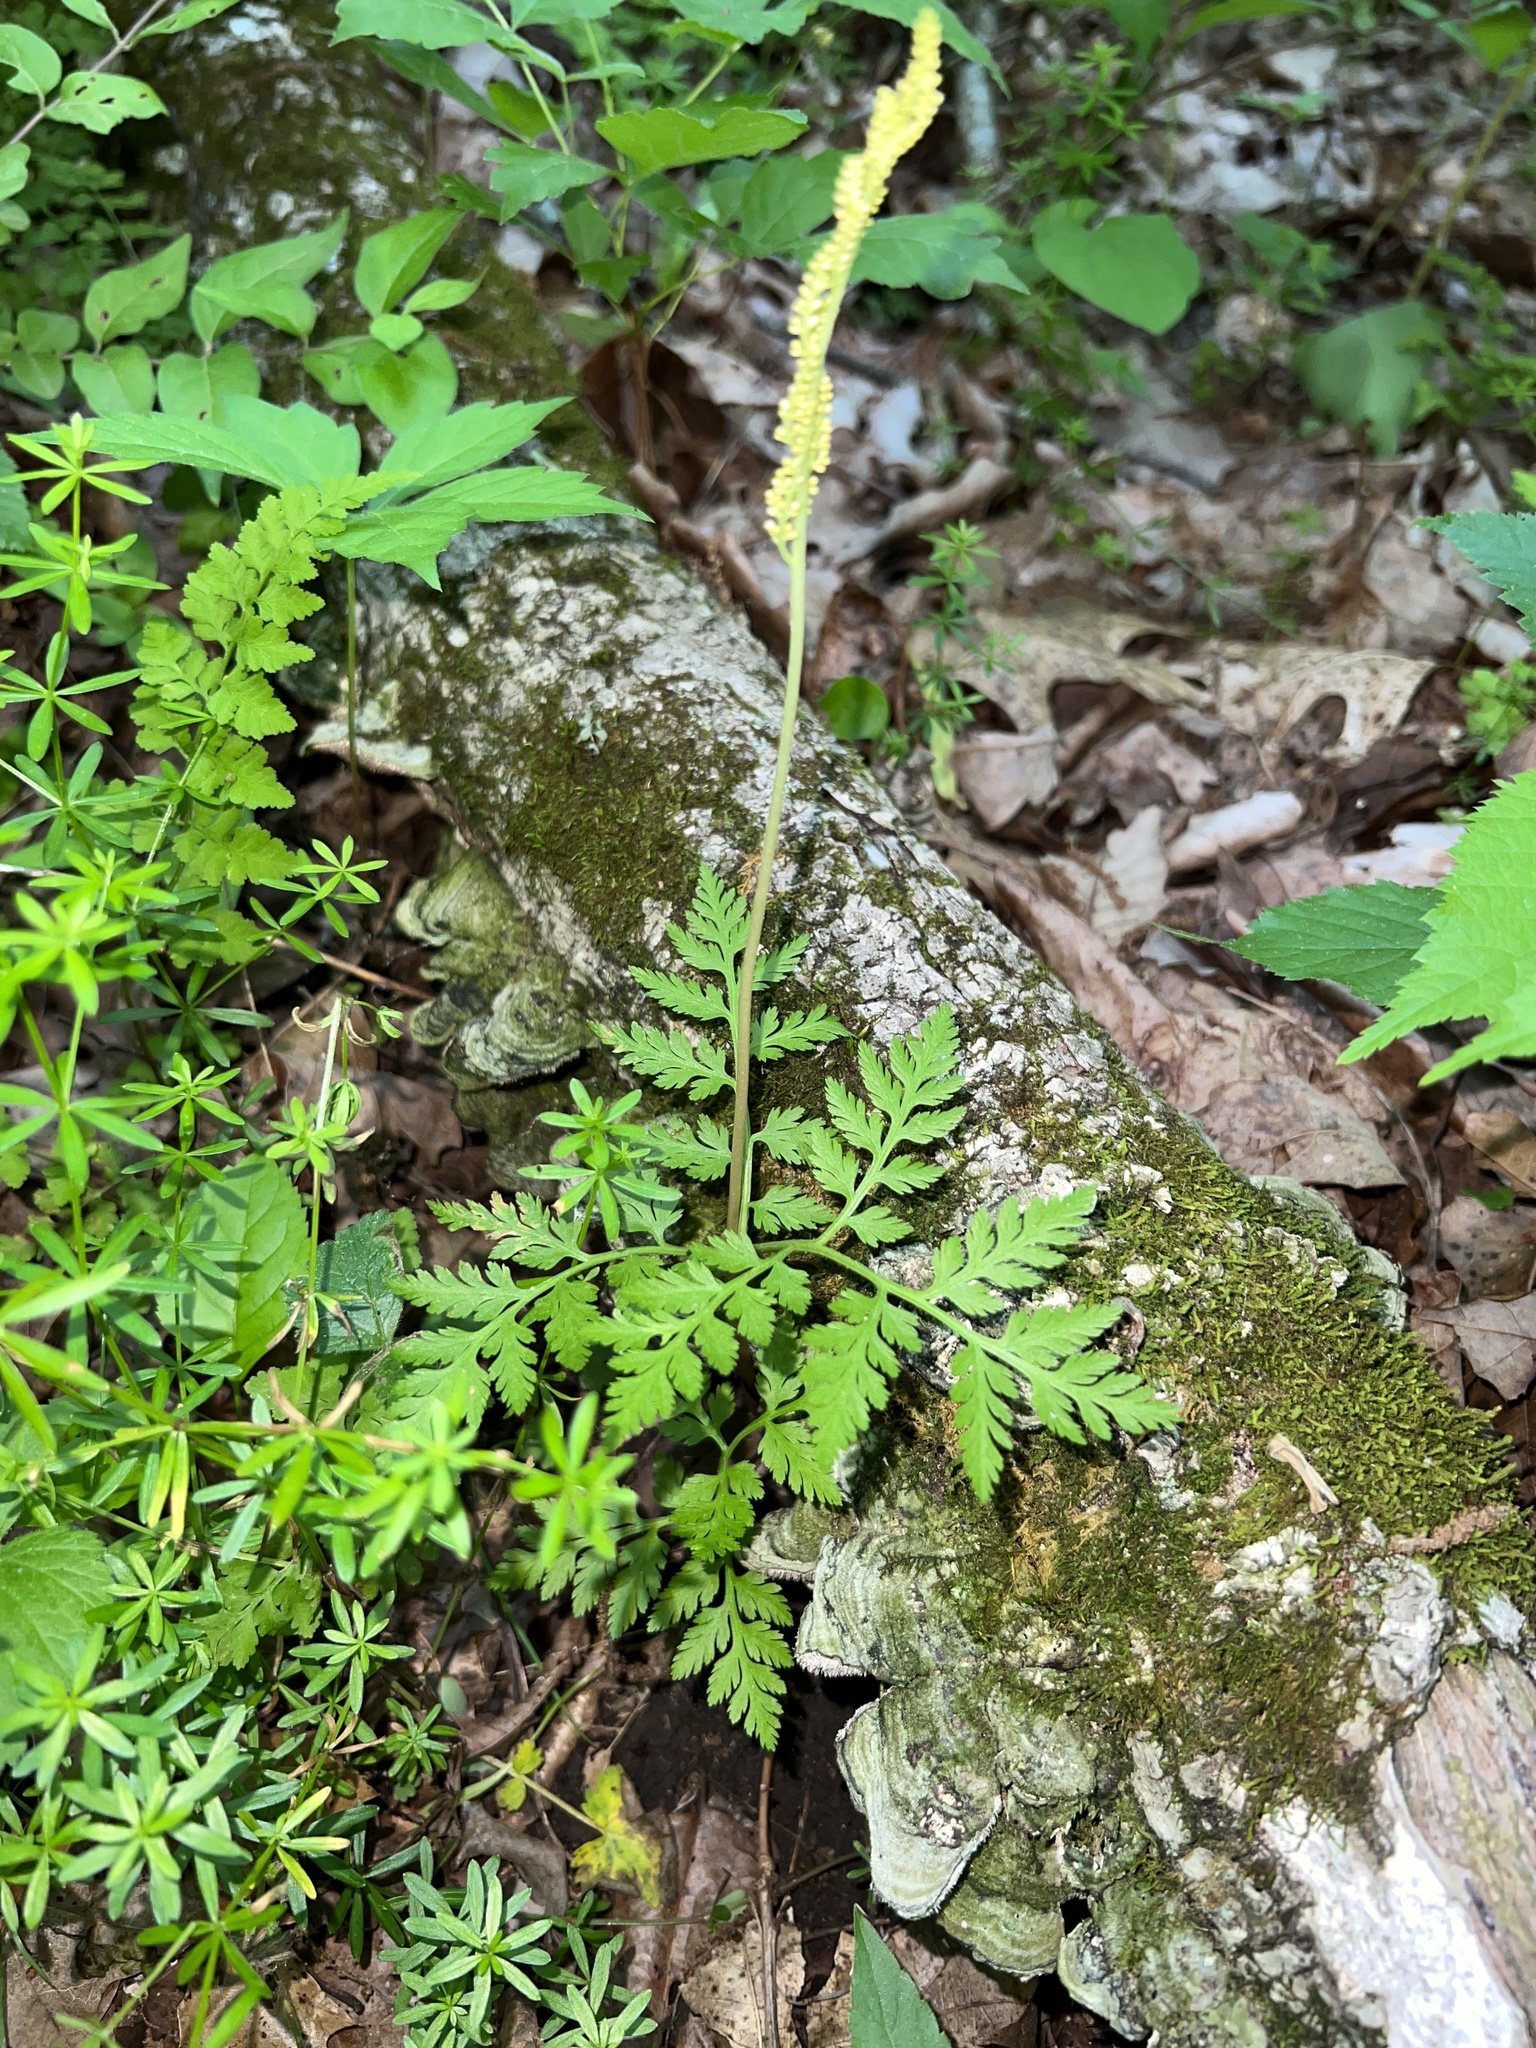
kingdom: Plantae
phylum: Tracheophyta
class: Polypodiopsida
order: Ophioglossales
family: Ophioglossaceae
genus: Botrypus
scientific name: Botrypus virginianus
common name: Common grapefern
